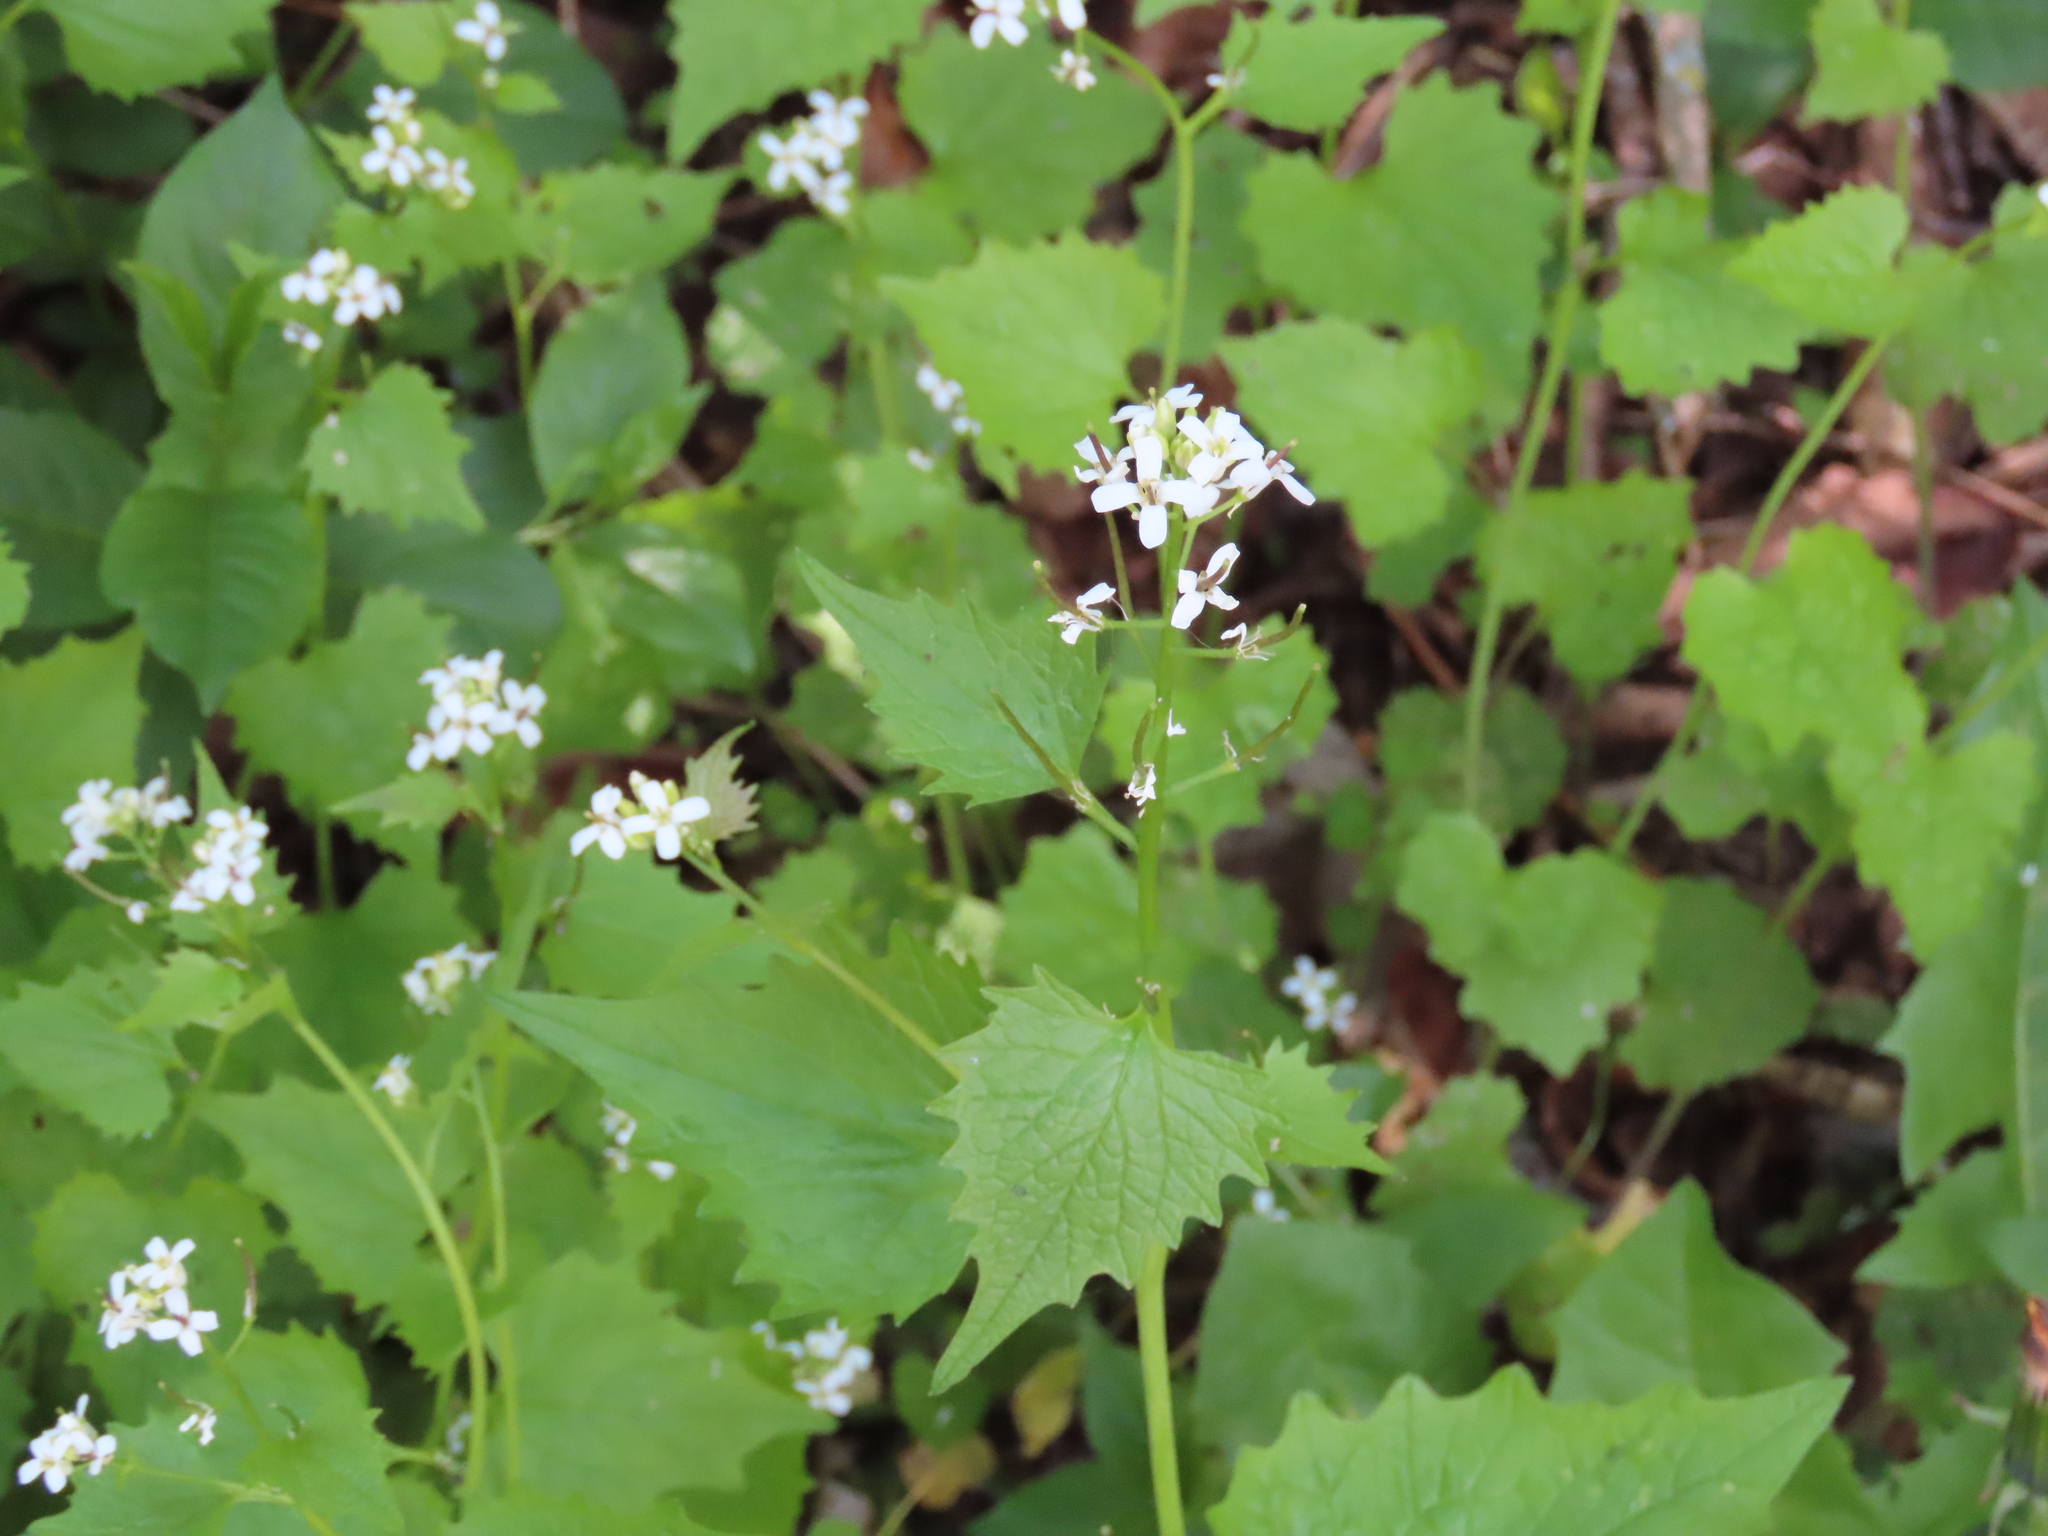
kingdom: Plantae
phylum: Tracheophyta
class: Magnoliopsida
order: Brassicales
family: Brassicaceae
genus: Alliaria
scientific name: Alliaria petiolata
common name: Garlic mustard
